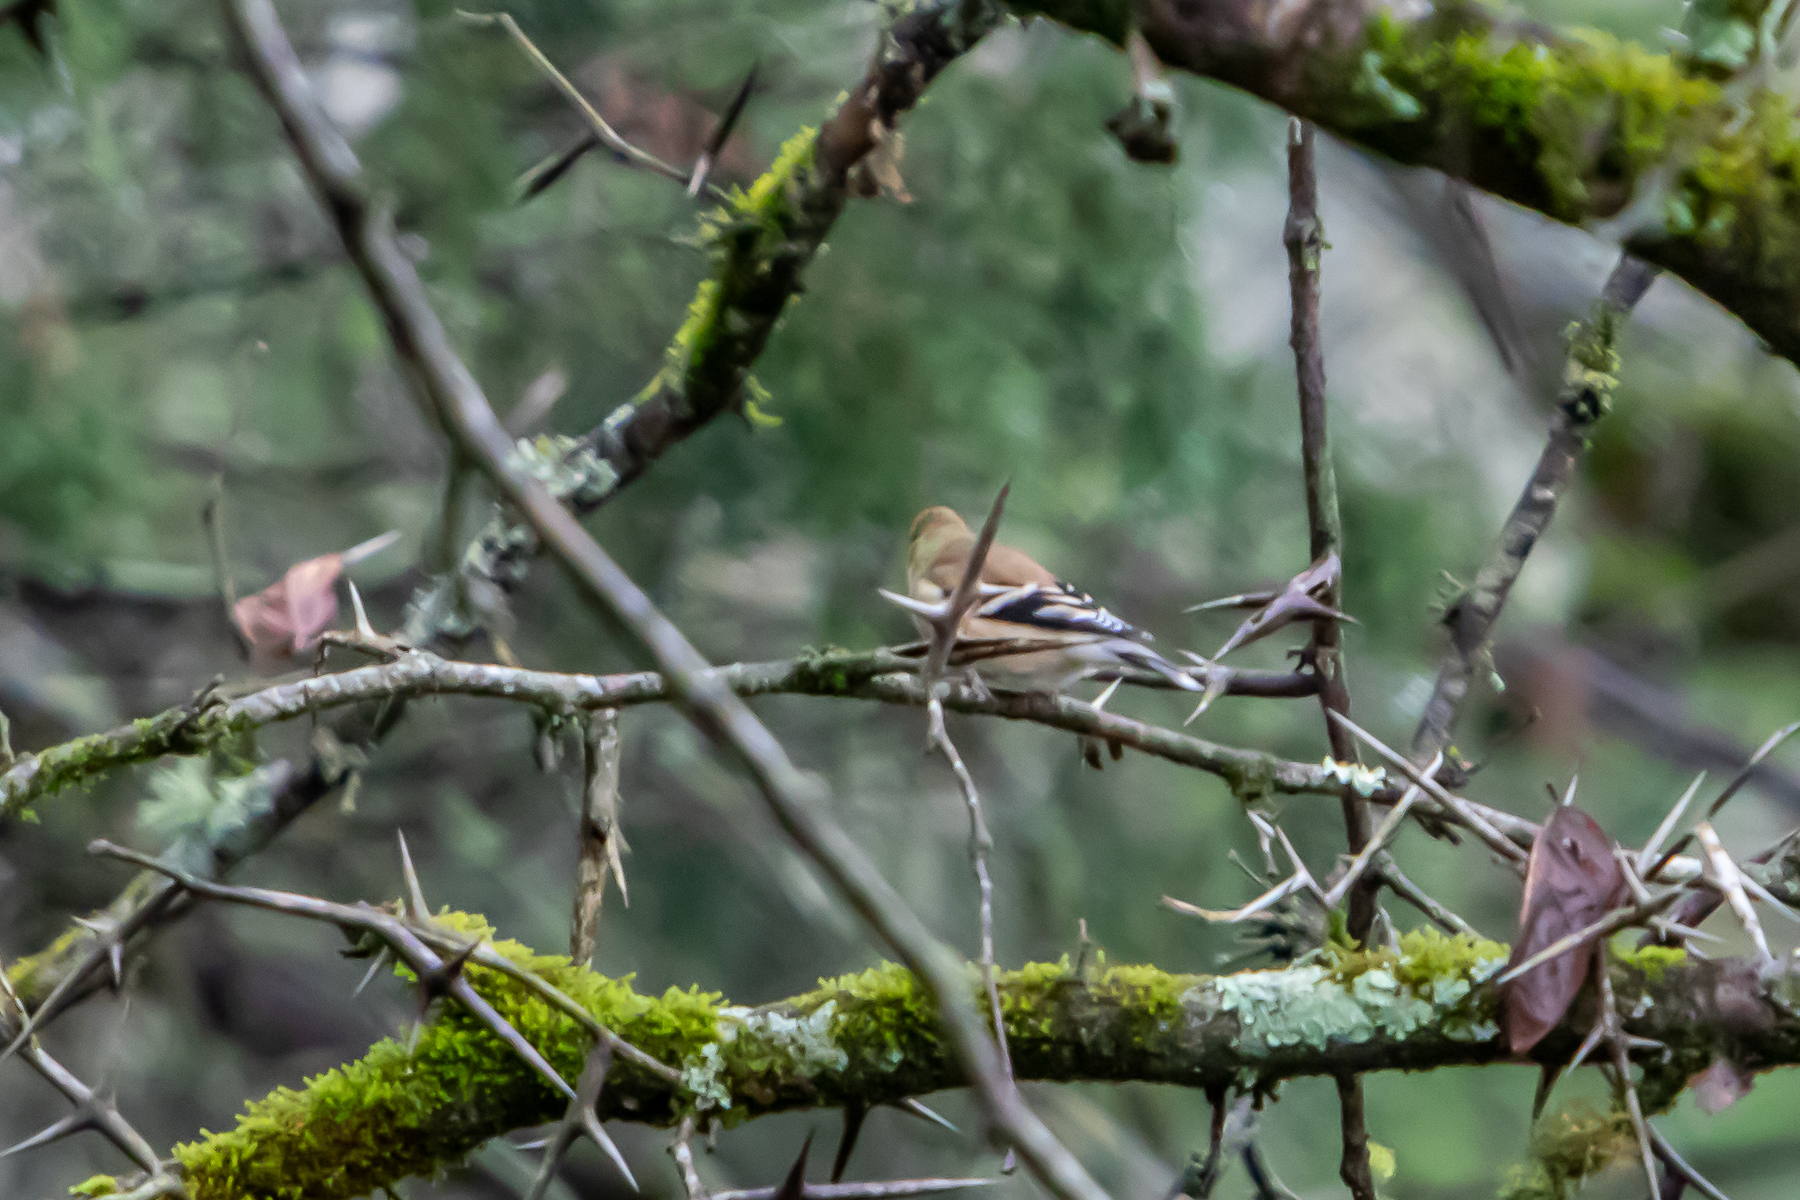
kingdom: Animalia
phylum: Chordata
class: Aves
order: Passeriformes
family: Fringillidae
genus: Spinus
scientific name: Spinus tristis
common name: American goldfinch
